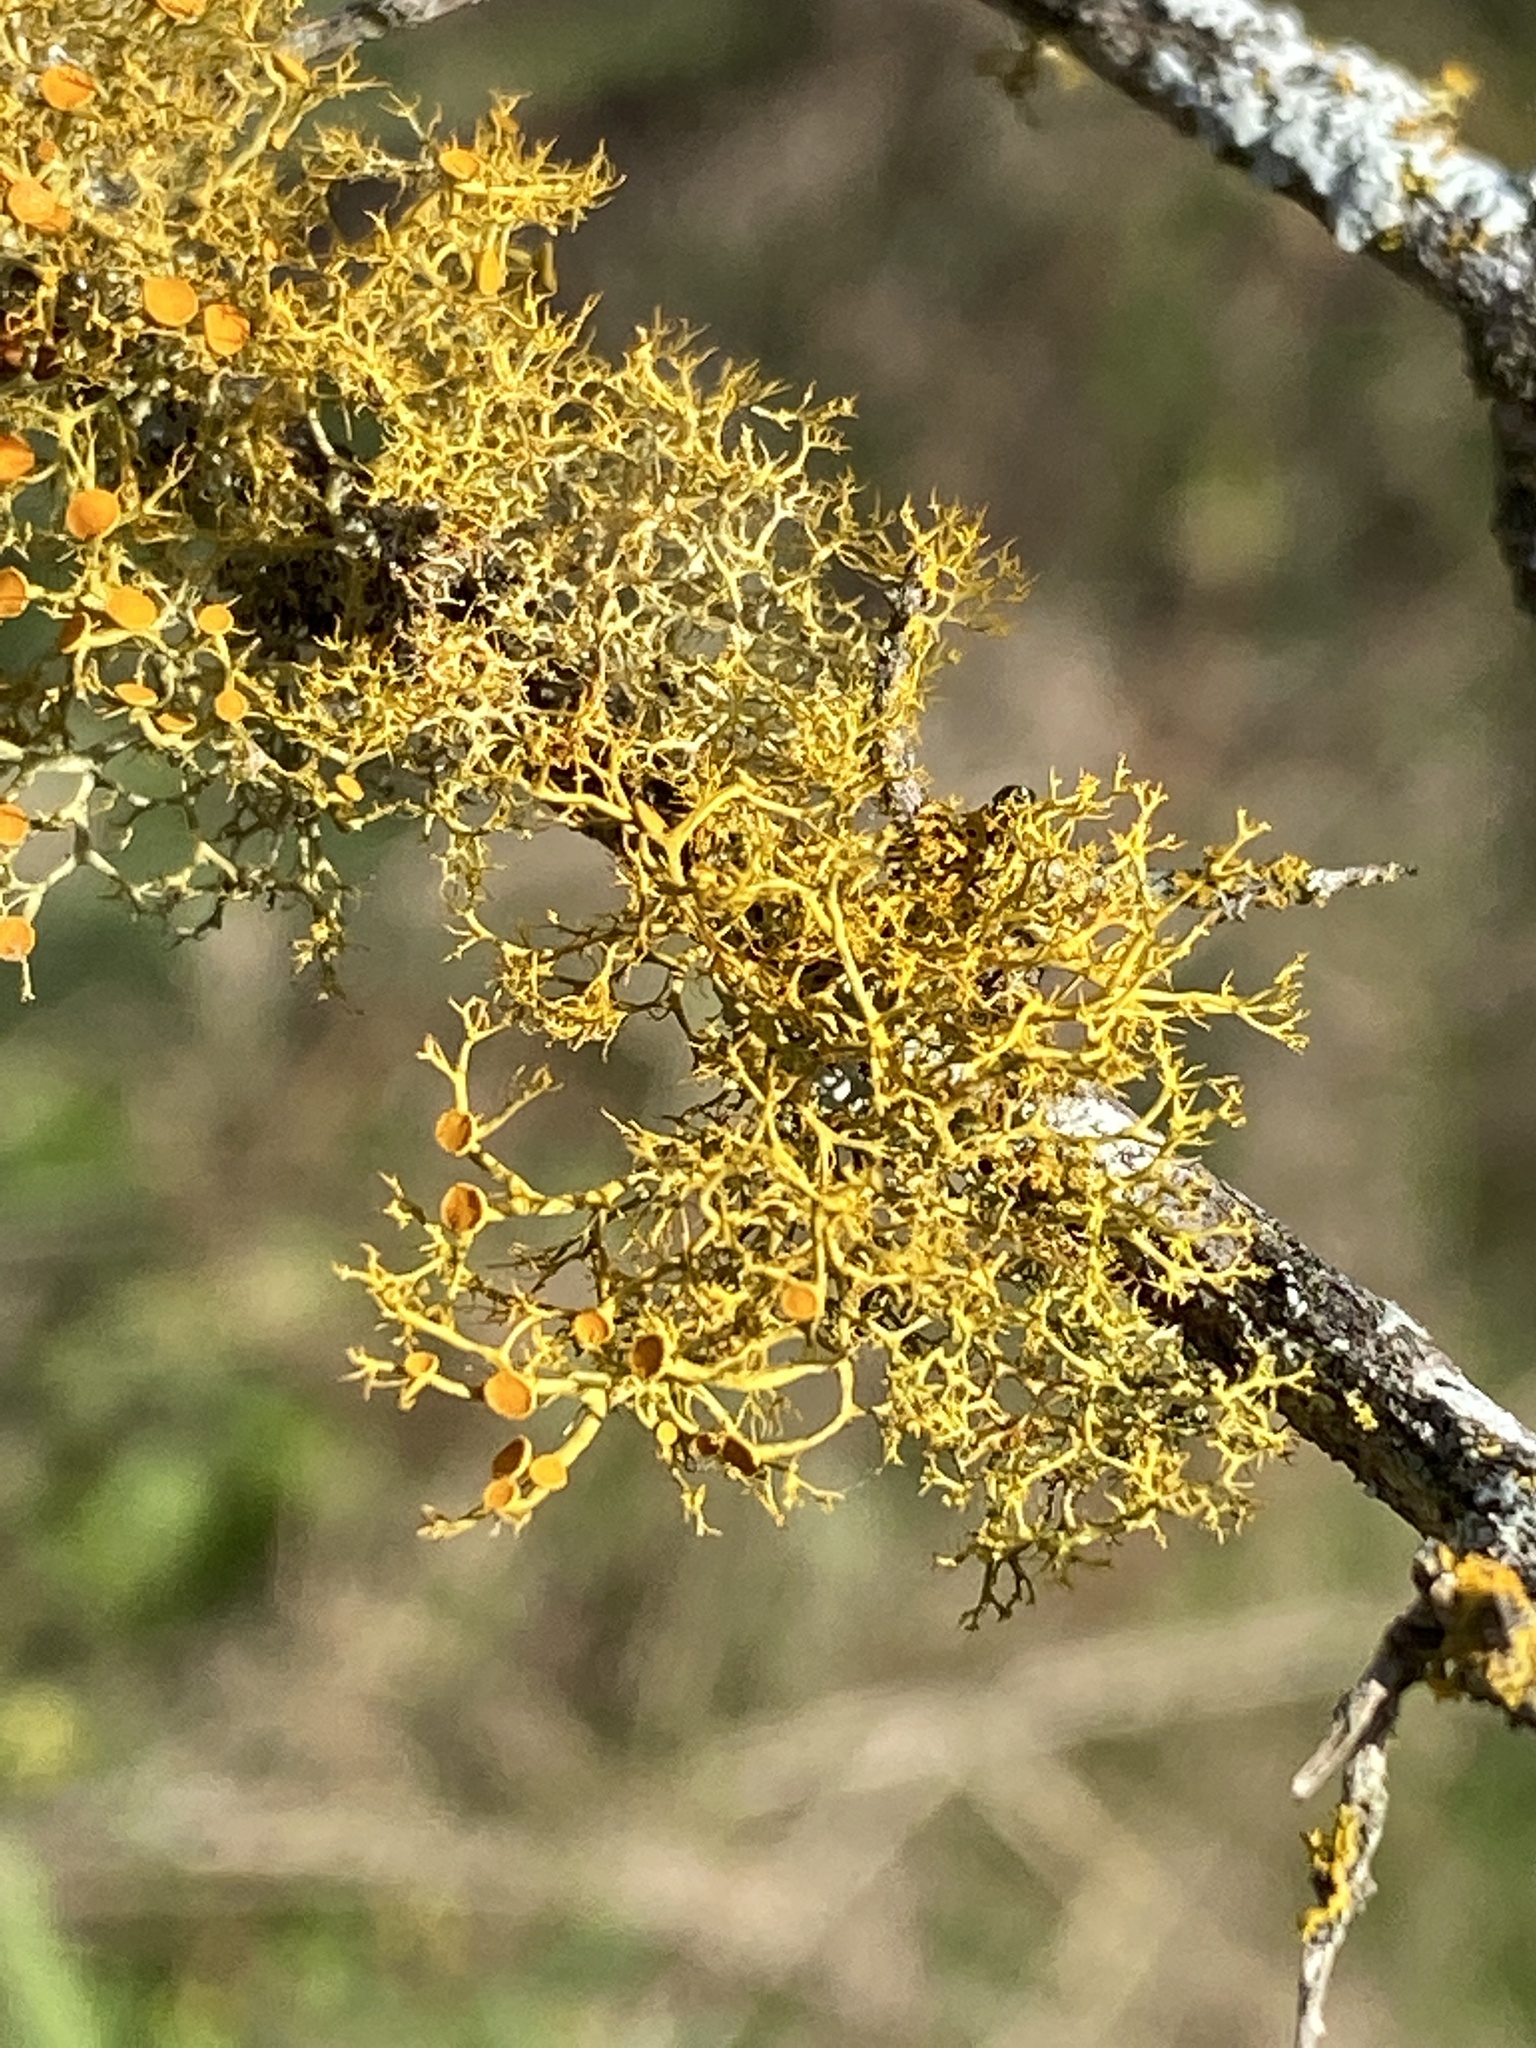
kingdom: Fungi
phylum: Ascomycota
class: Lecanoromycetes
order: Teloschistales
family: Teloschistaceae
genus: Teloschistes
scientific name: Teloschistes exilis
